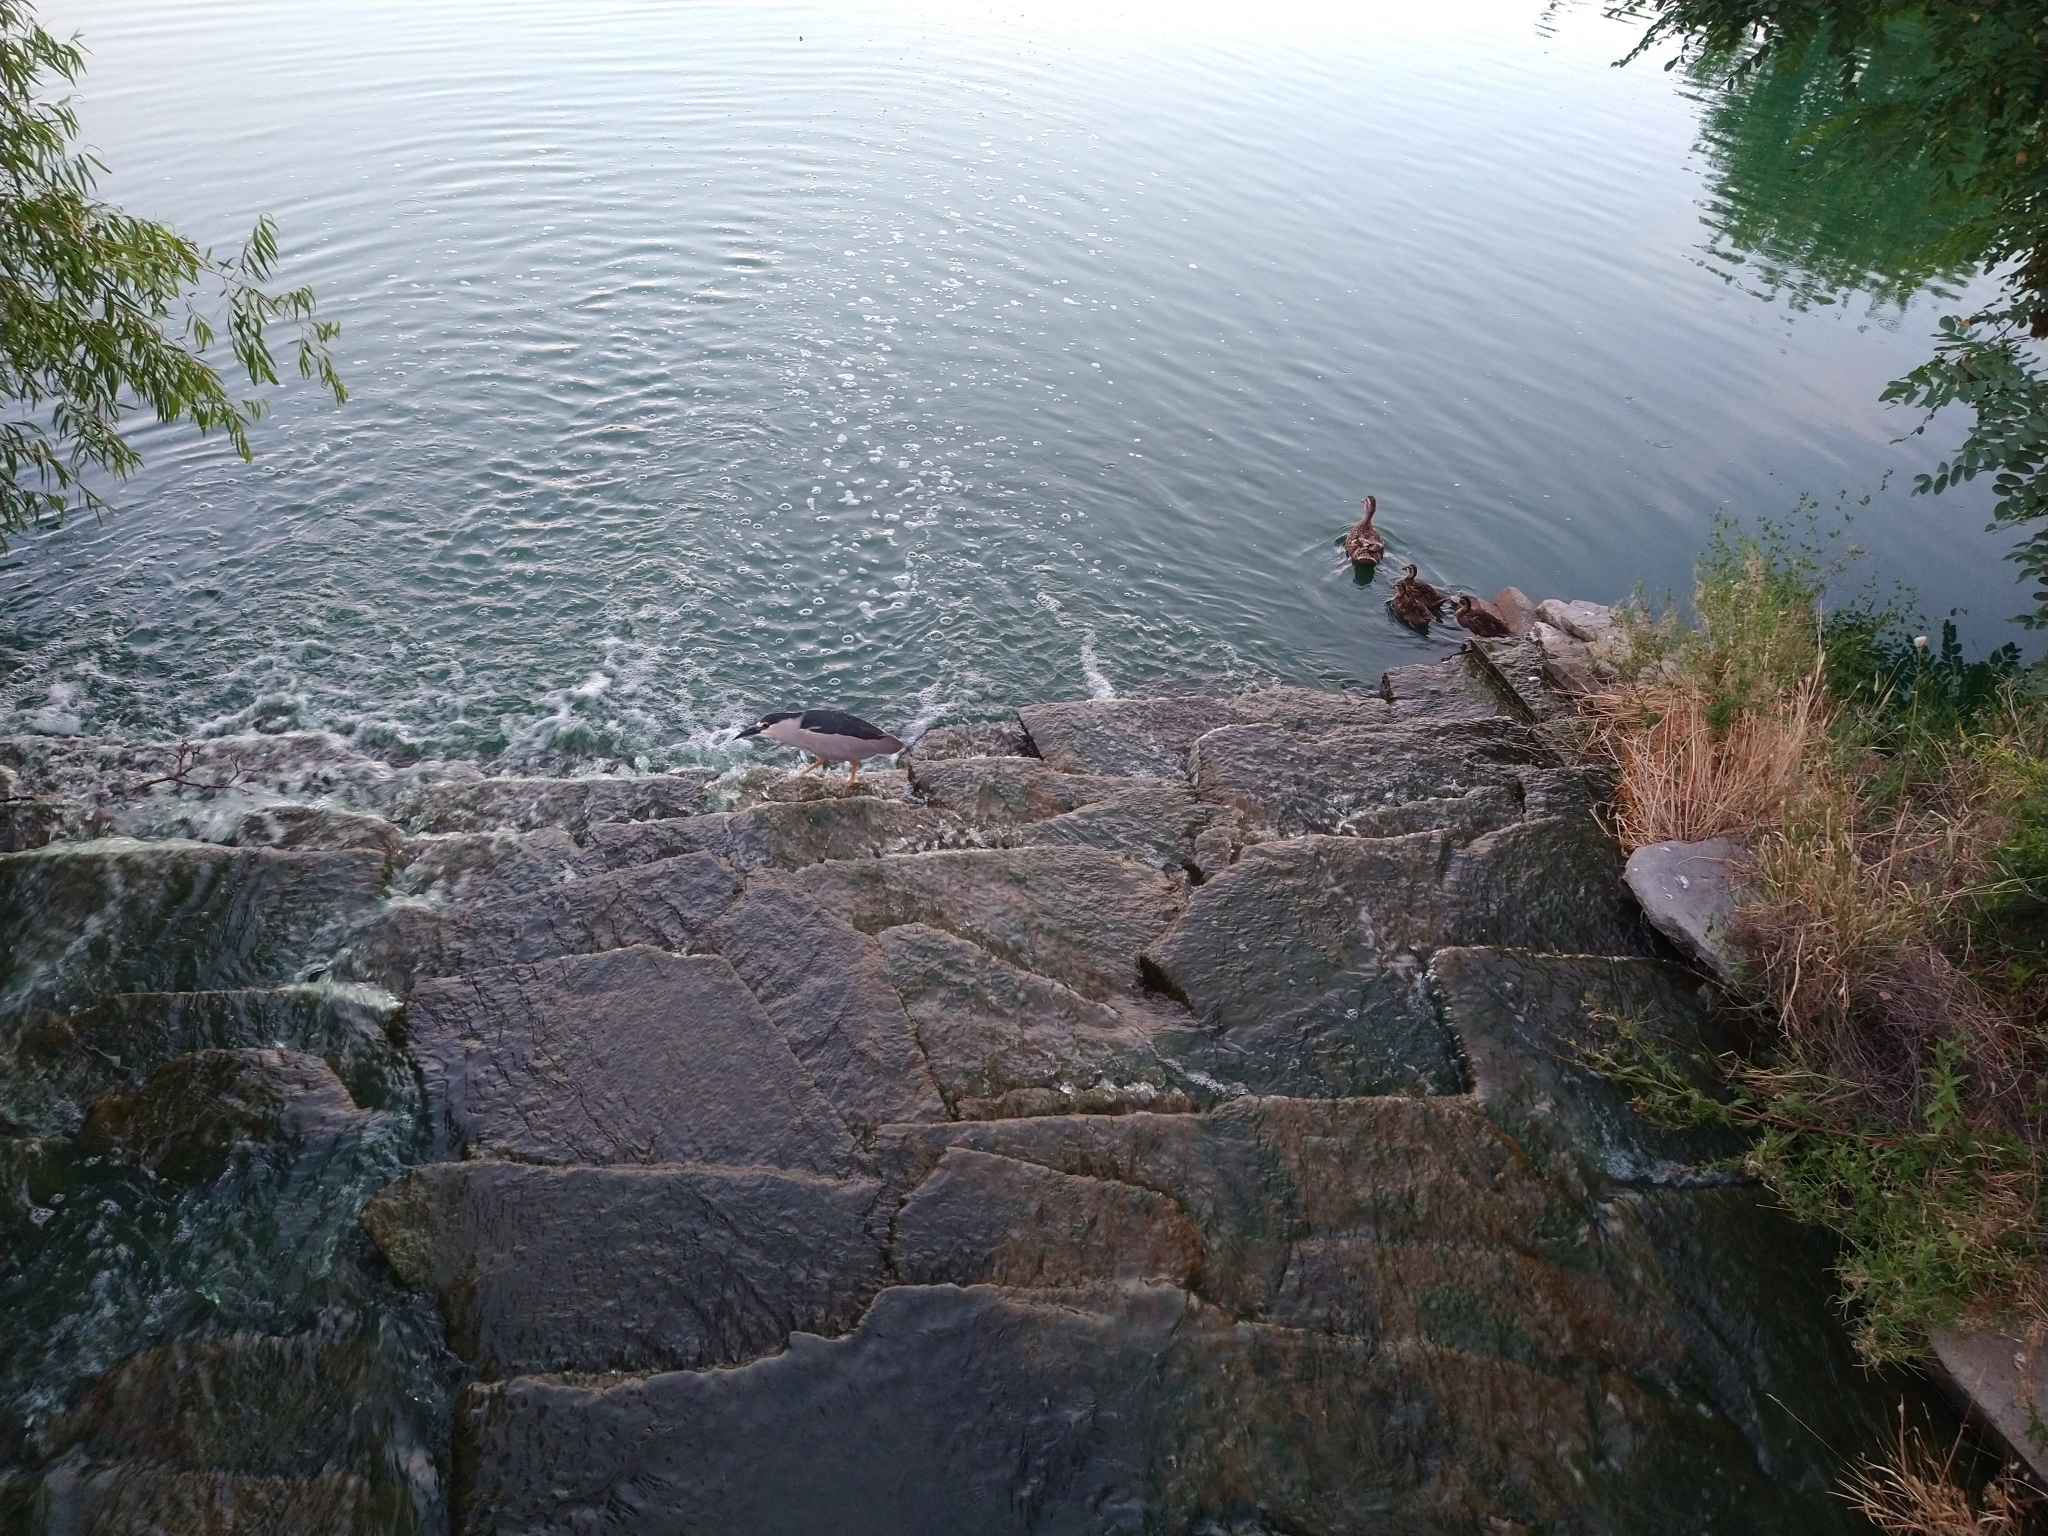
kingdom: Animalia
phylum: Chordata
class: Aves
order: Pelecaniformes
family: Ardeidae
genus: Nycticorax
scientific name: Nycticorax nycticorax
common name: Black-crowned night heron
